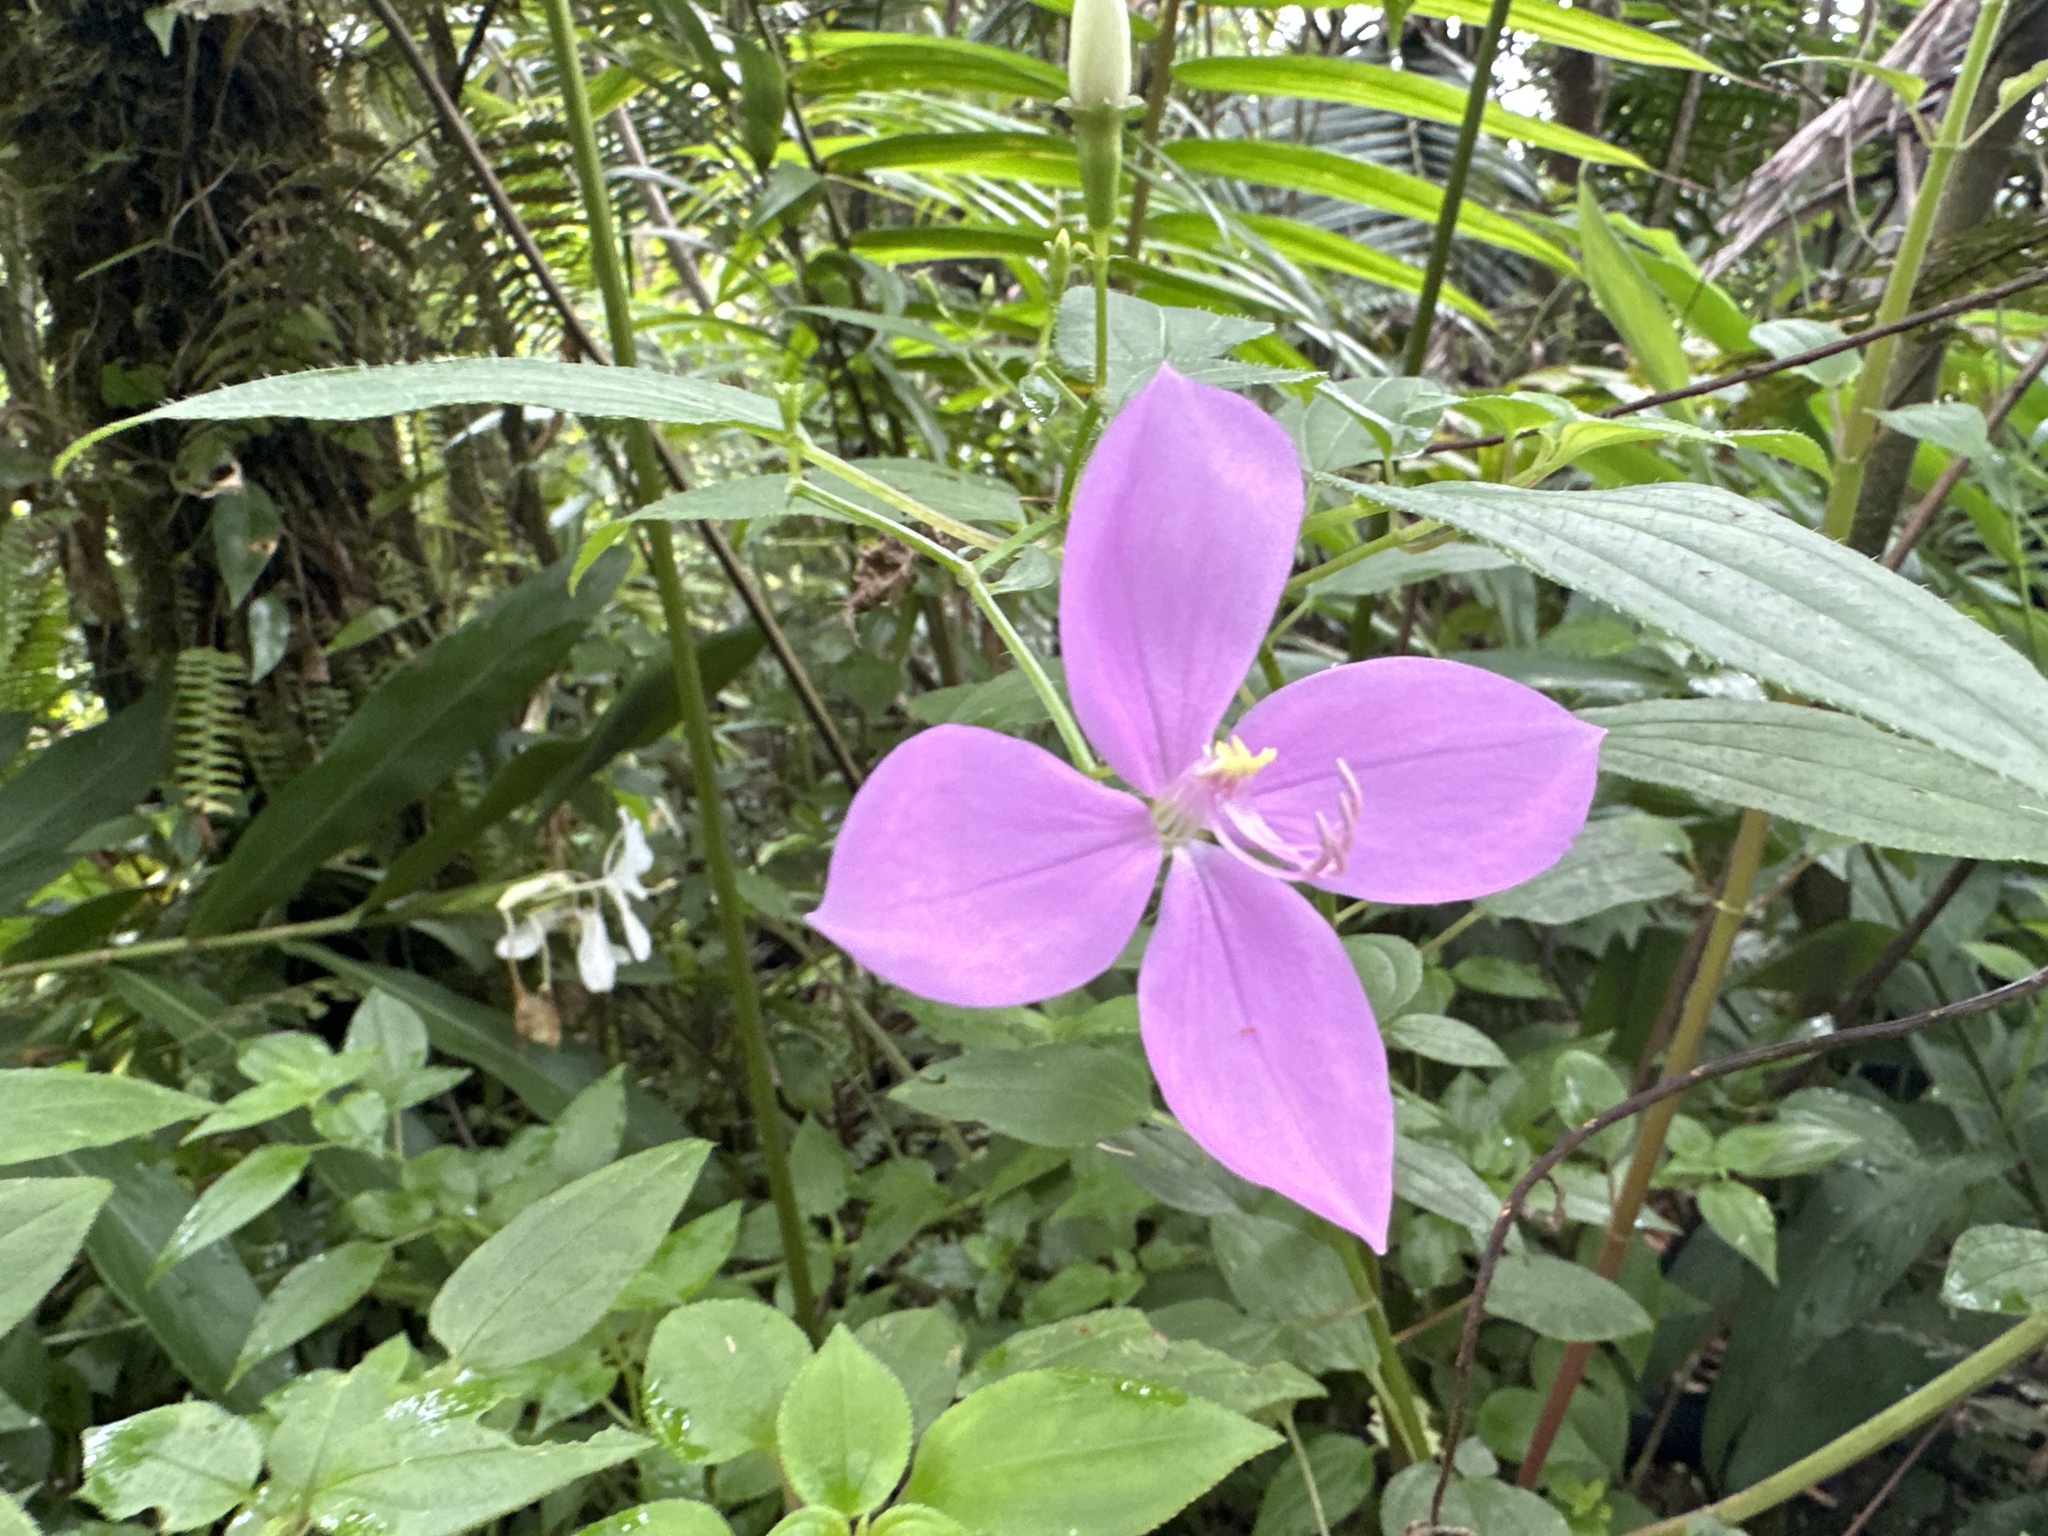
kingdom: Plantae
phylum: Tracheophyta
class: Magnoliopsida
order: Myrtales
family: Melastomataceae
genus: Arthrostemma
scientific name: Arthrostemma ciliatum
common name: Everblooming eavender
